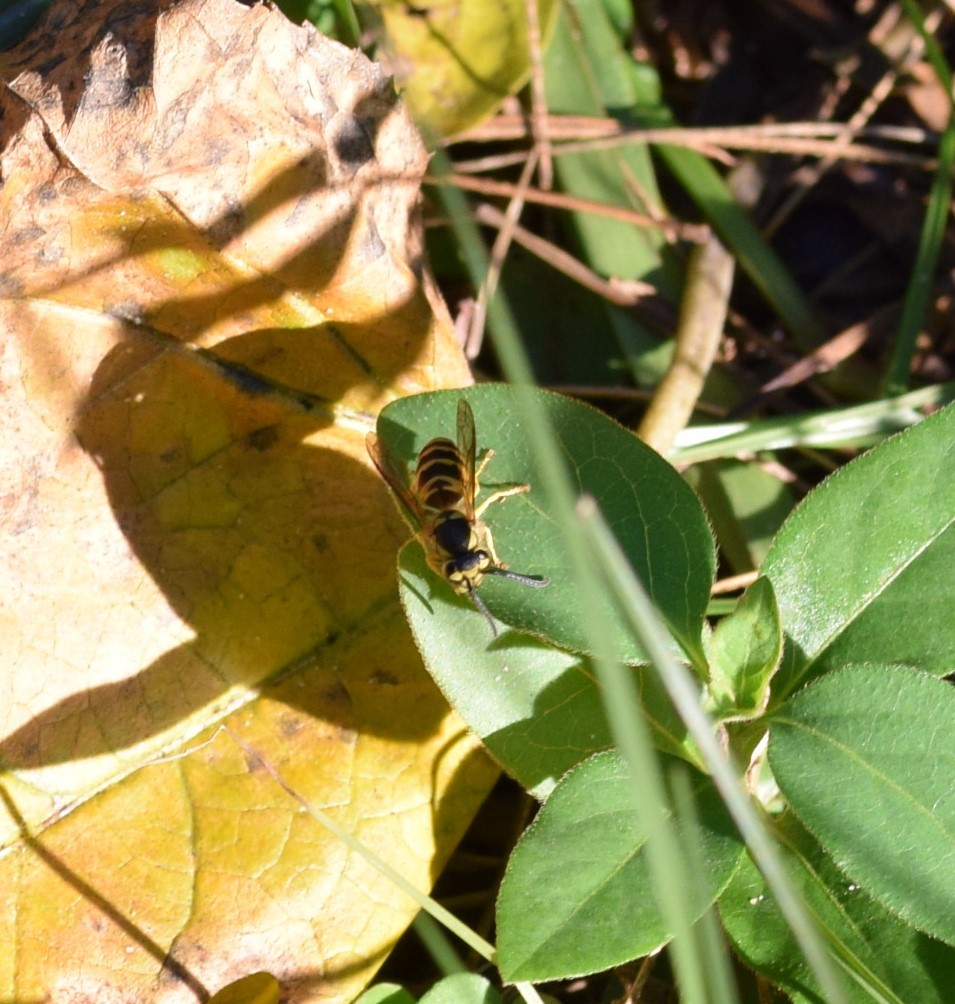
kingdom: Animalia
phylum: Arthropoda
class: Insecta
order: Hymenoptera
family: Vespidae
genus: Vespula
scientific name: Vespula maculifrons
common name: Eastern yellowjacket
